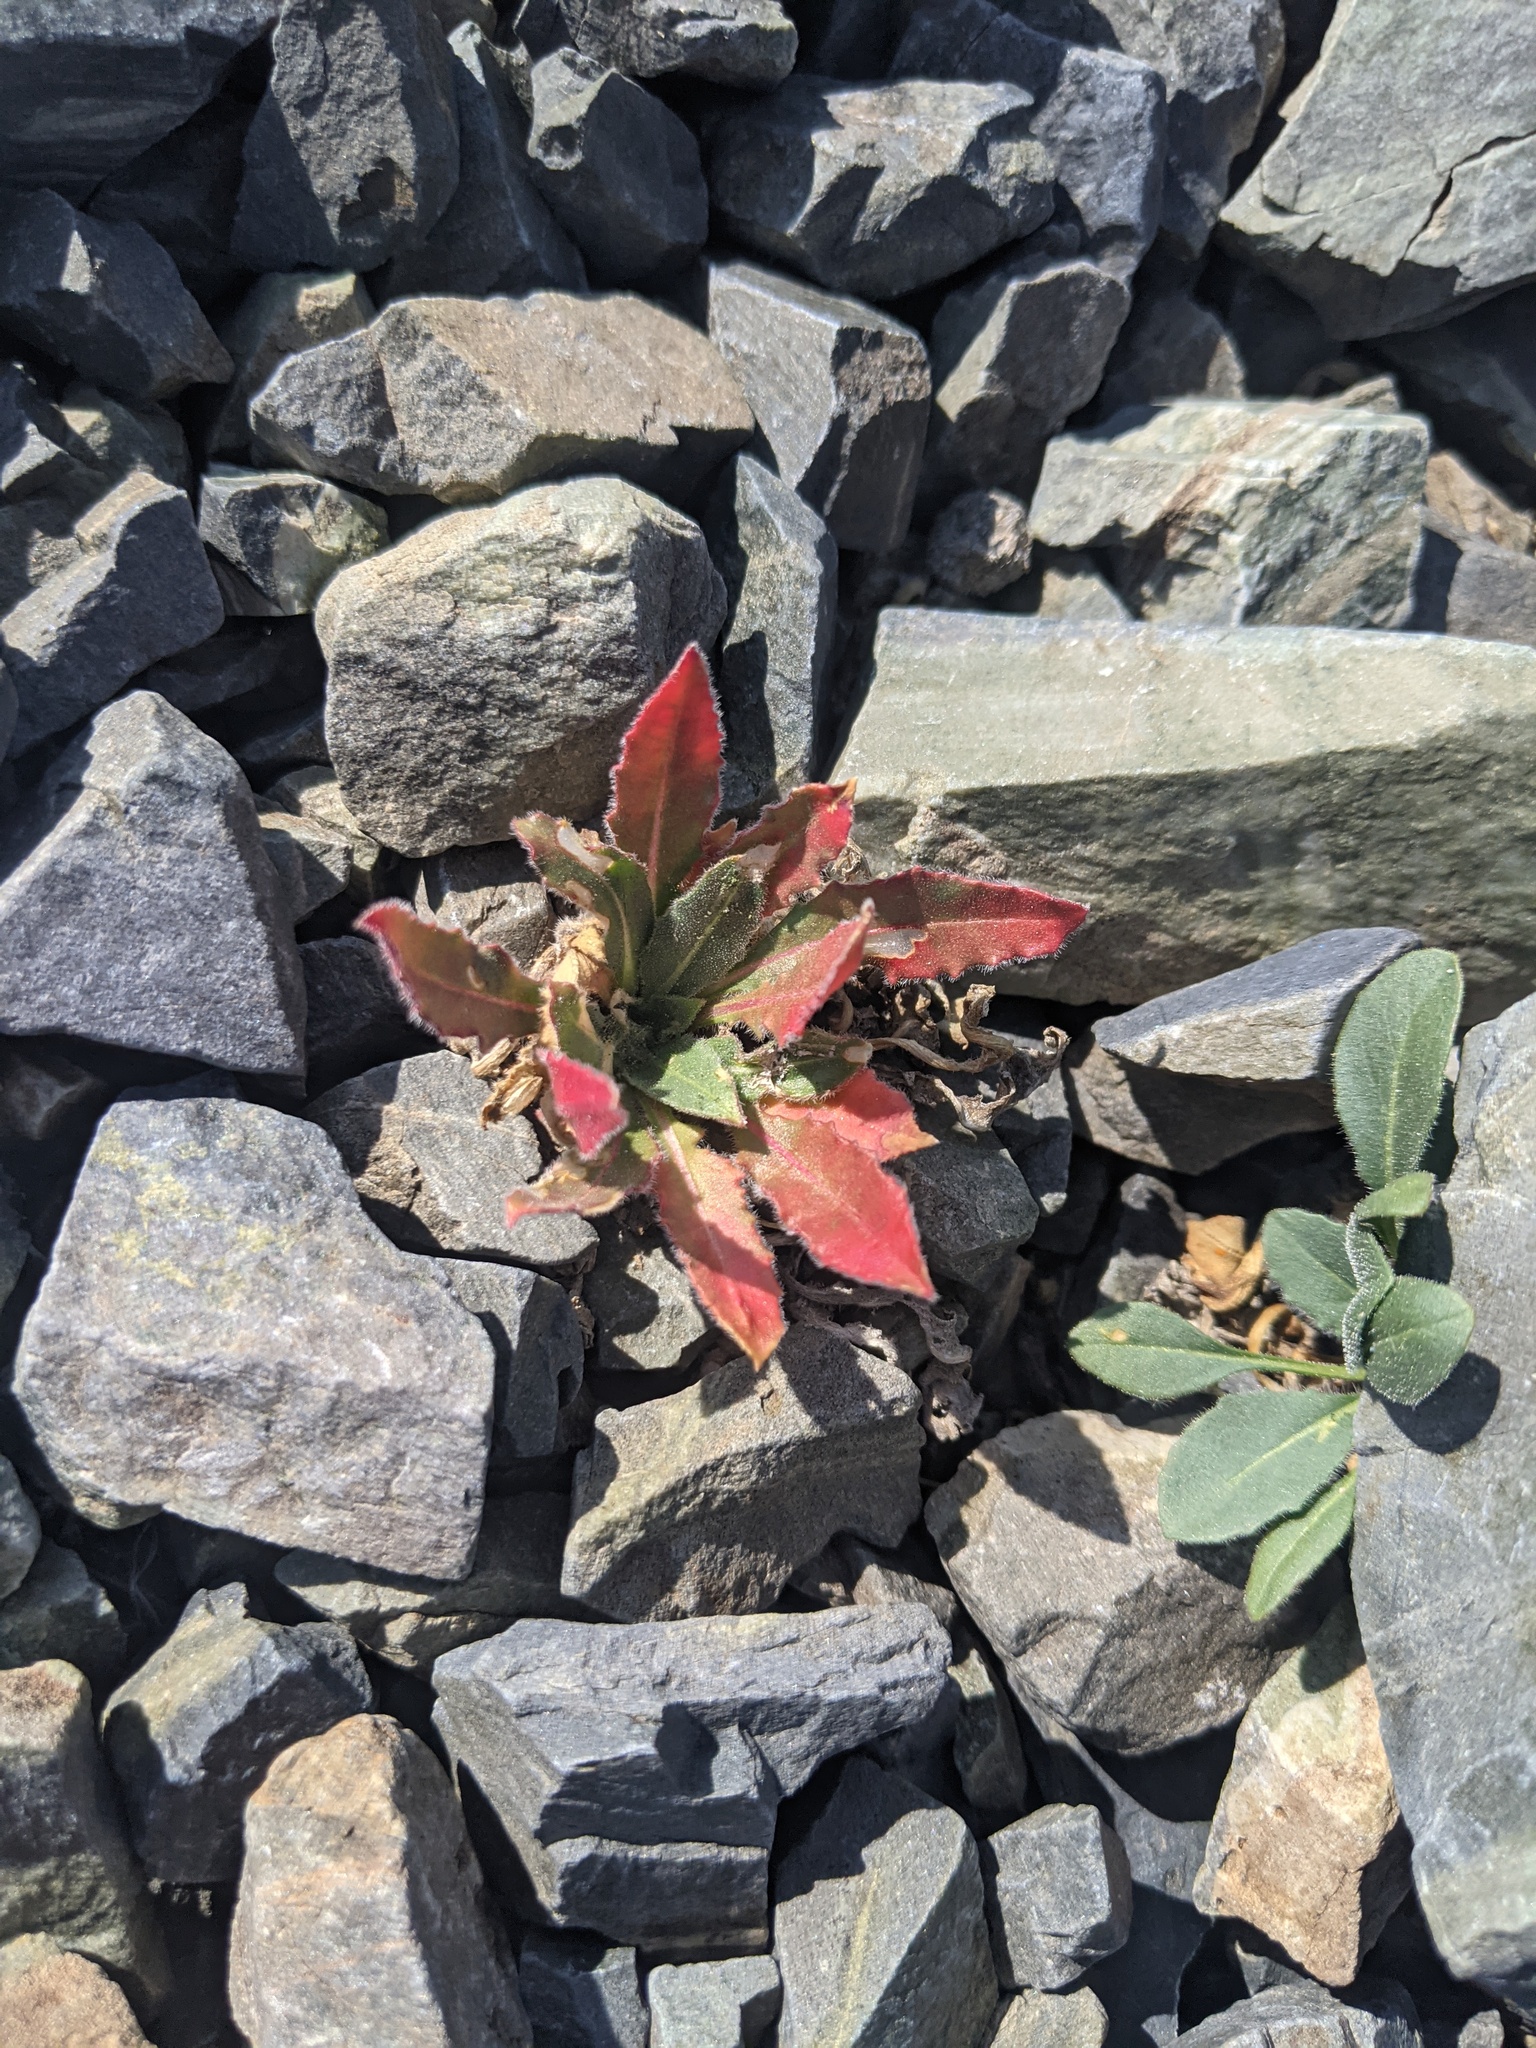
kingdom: Plantae
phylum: Tracheophyta
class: Magnoliopsida
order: Myrtales
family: Onagraceae
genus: Oenothera
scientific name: Oenothera cespitosa
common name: Tufted evening-primrose
